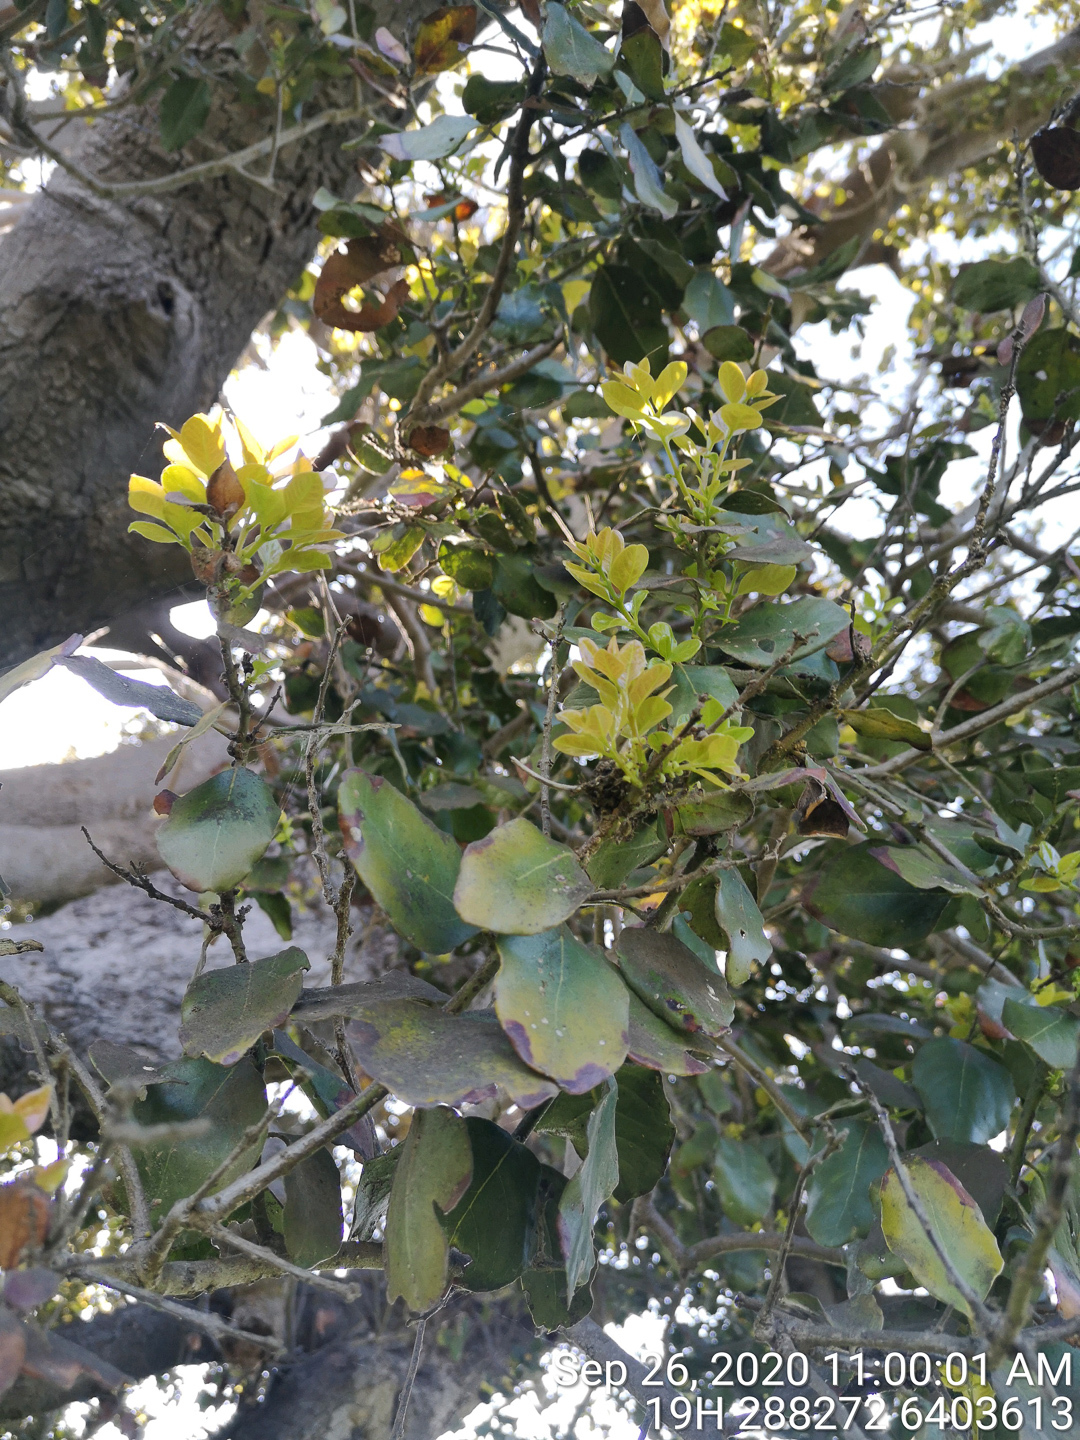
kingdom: Plantae
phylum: Tracheophyta
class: Magnoliopsida
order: Laurales
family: Lauraceae
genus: Cryptocarya
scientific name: Cryptocarya alba
